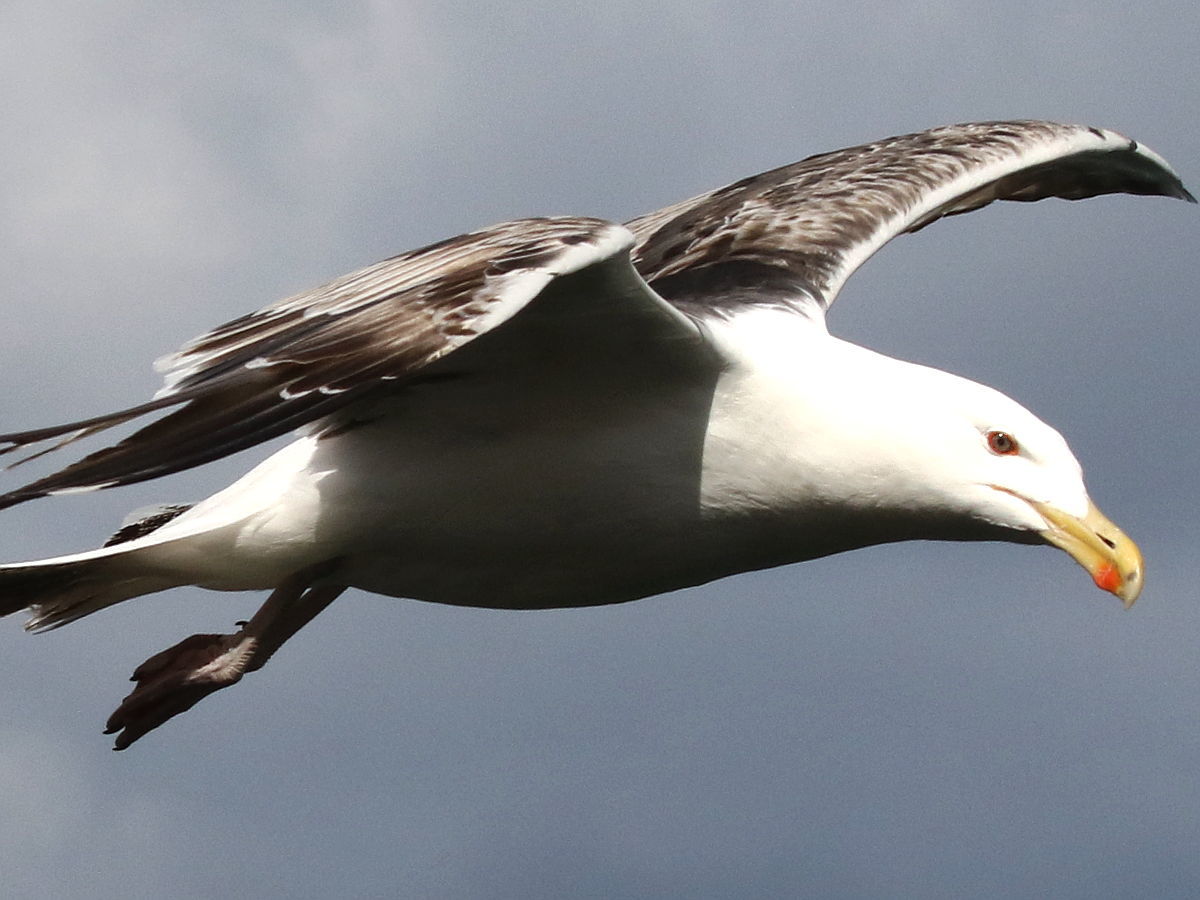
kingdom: Animalia
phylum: Chordata
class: Aves
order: Charadriiformes
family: Laridae
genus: Larus
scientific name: Larus marinus
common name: Great black-backed gull
